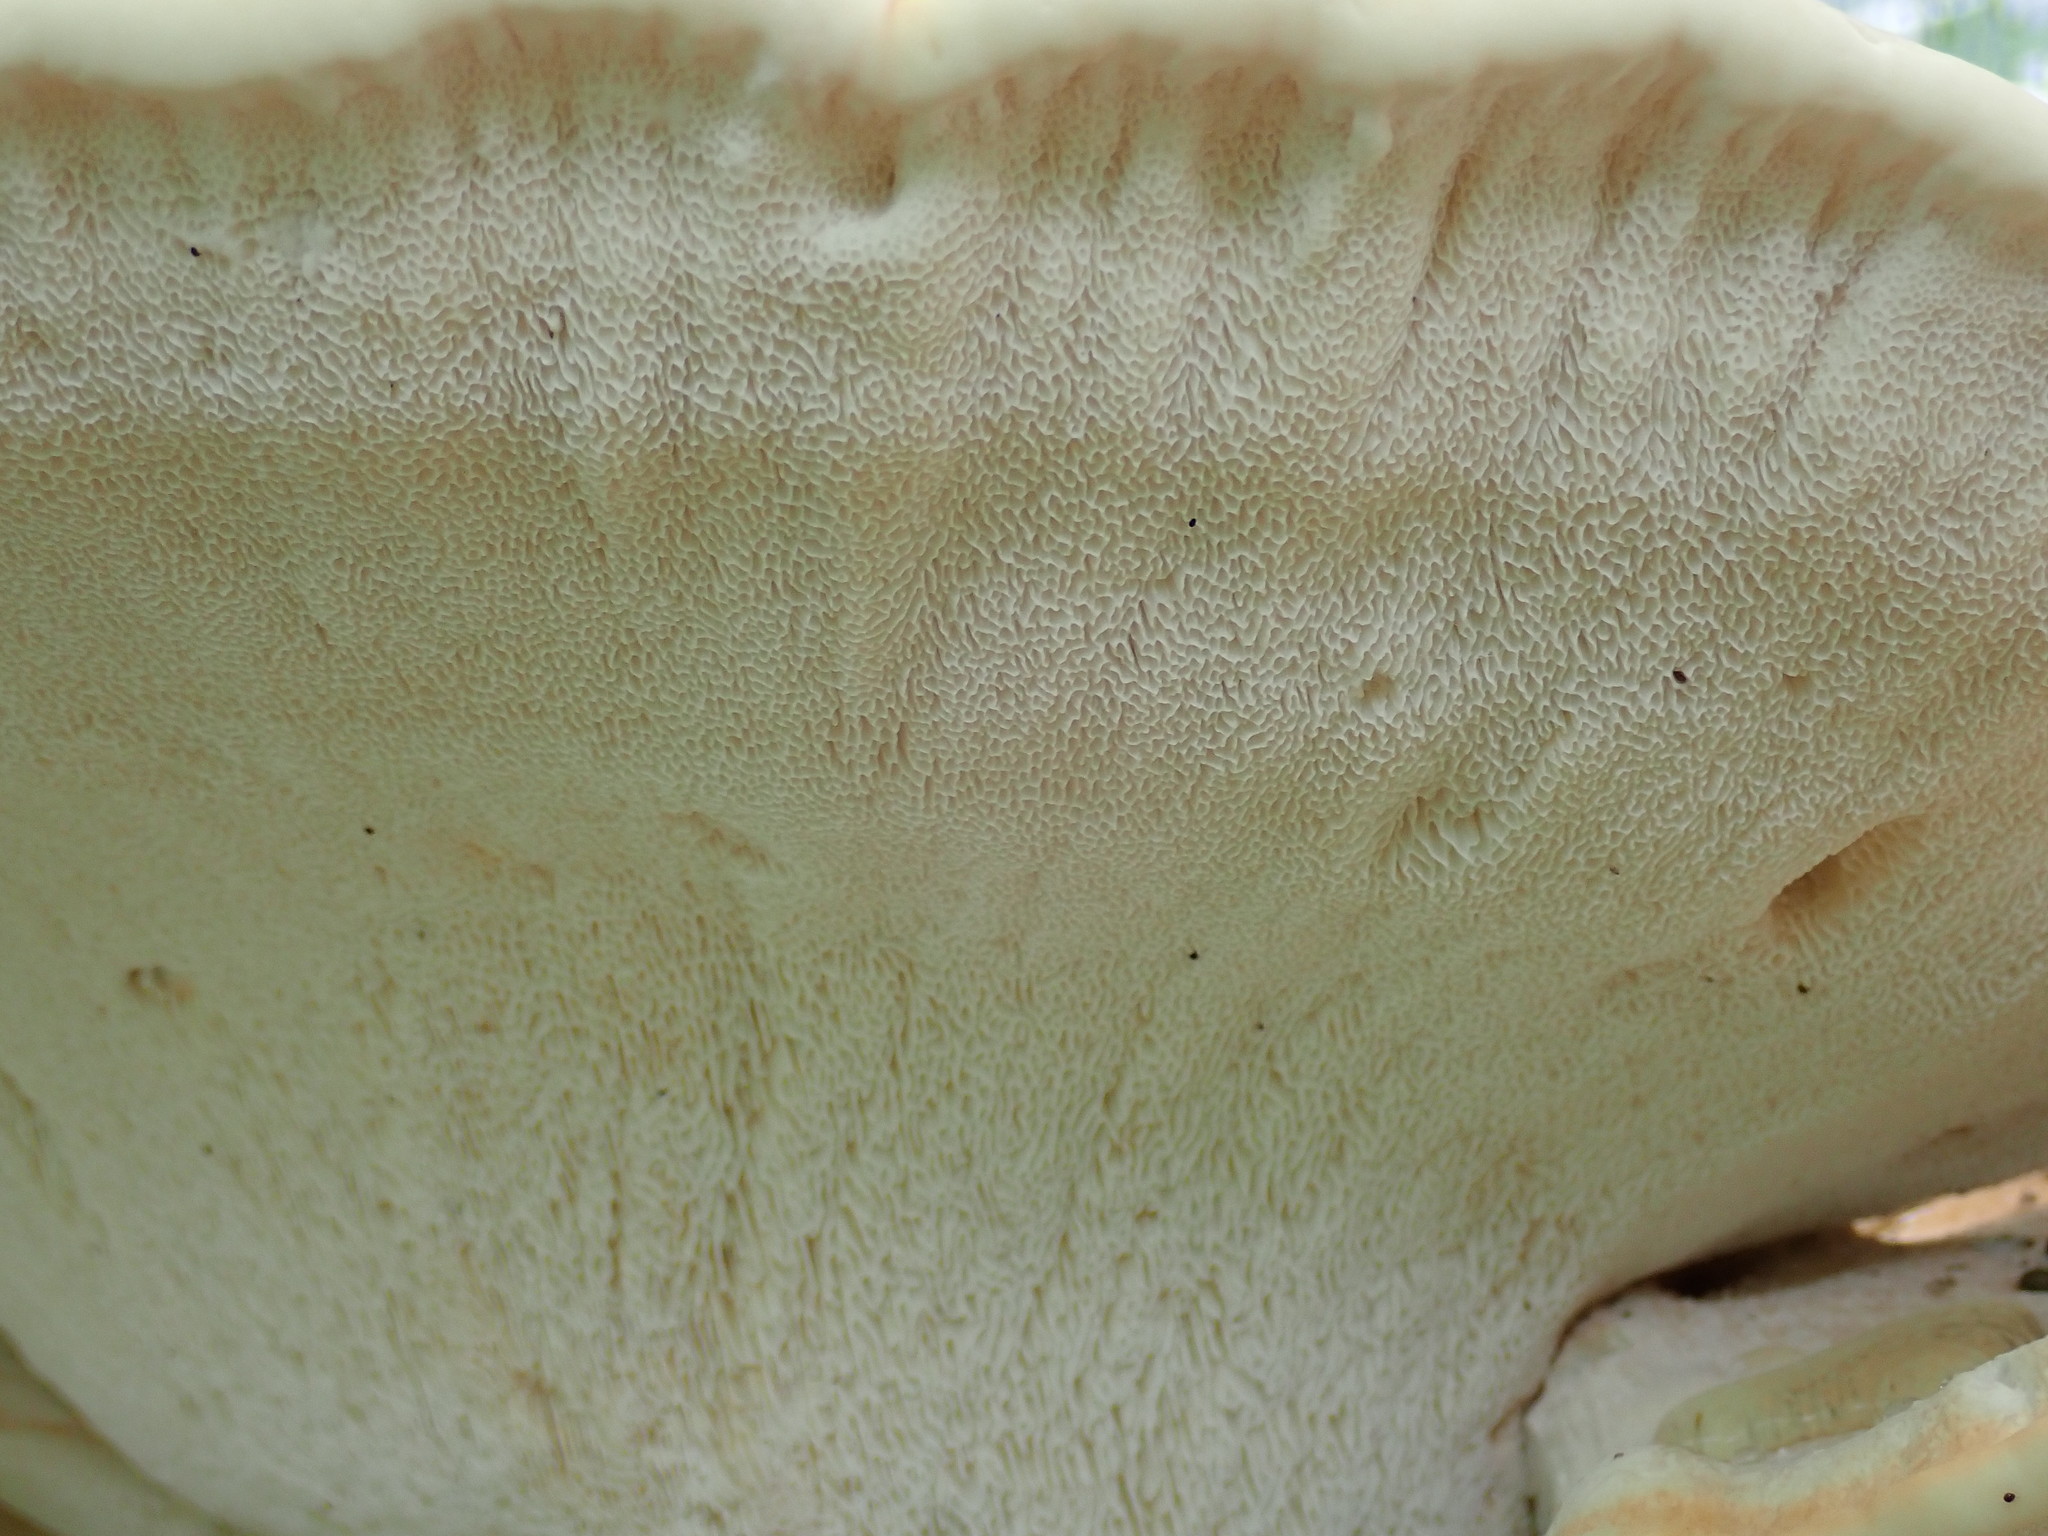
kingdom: Fungi
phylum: Basidiomycota
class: Agaricomycetes
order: Russulales
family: Bondarzewiaceae
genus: Bondarzewia
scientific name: Bondarzewia berkeleyi
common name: Berkeley's polypore
